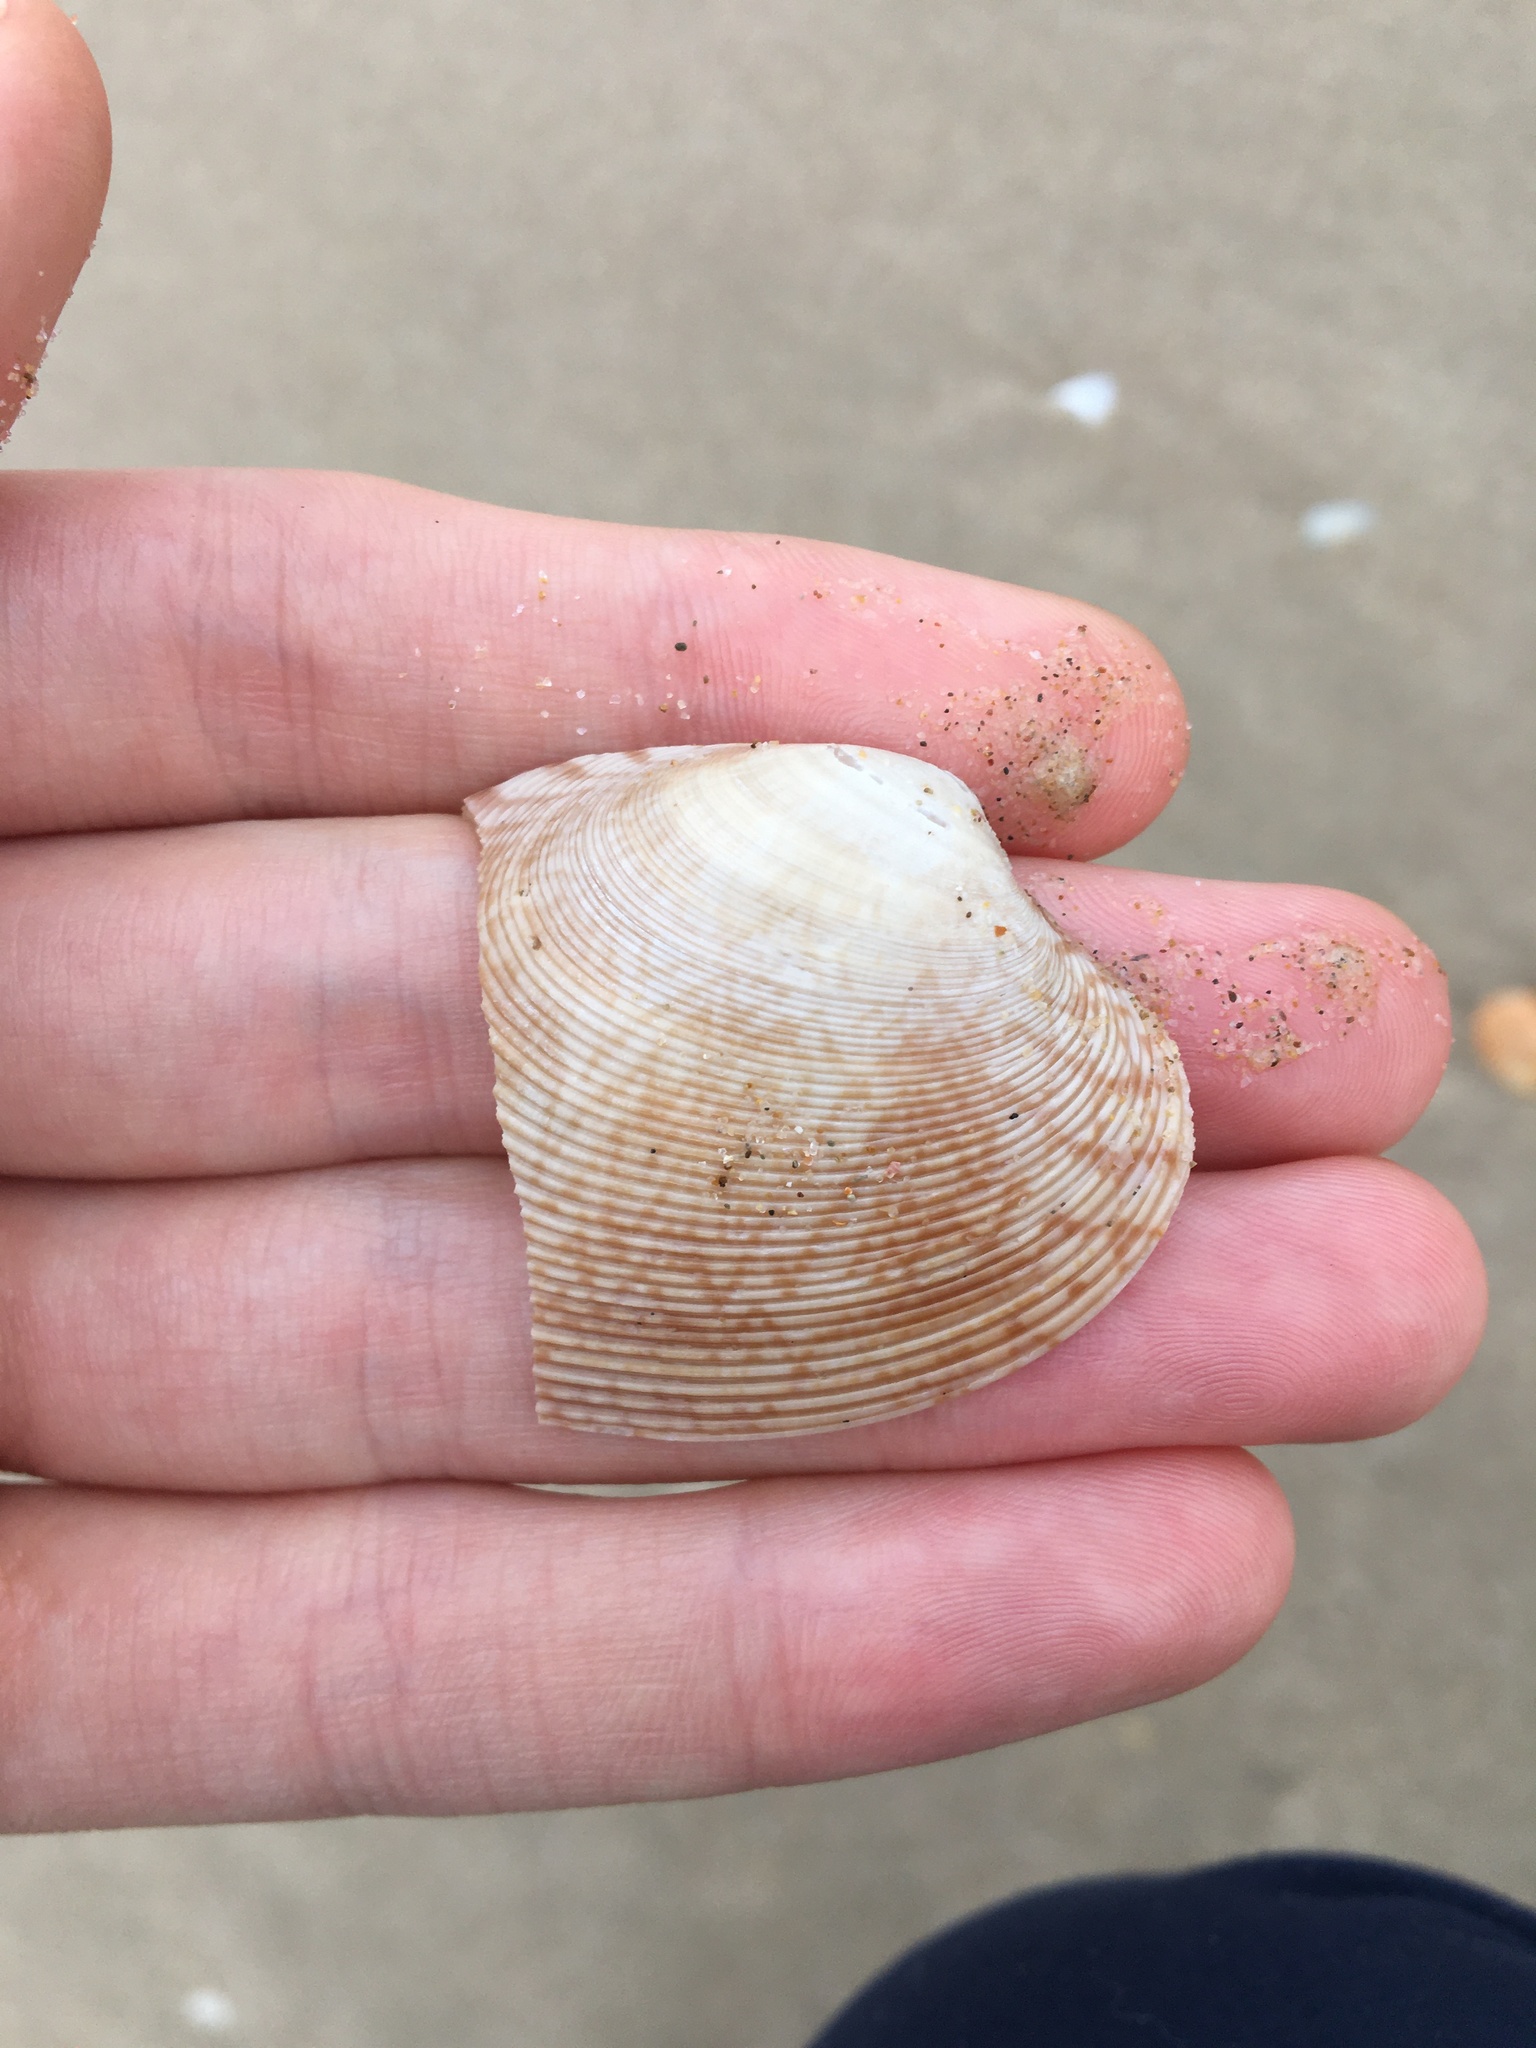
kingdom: Animalia
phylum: Mollusca
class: Bivalvia
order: Venerida
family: Veneridae
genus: Tapes
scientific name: Tapes conspersus
